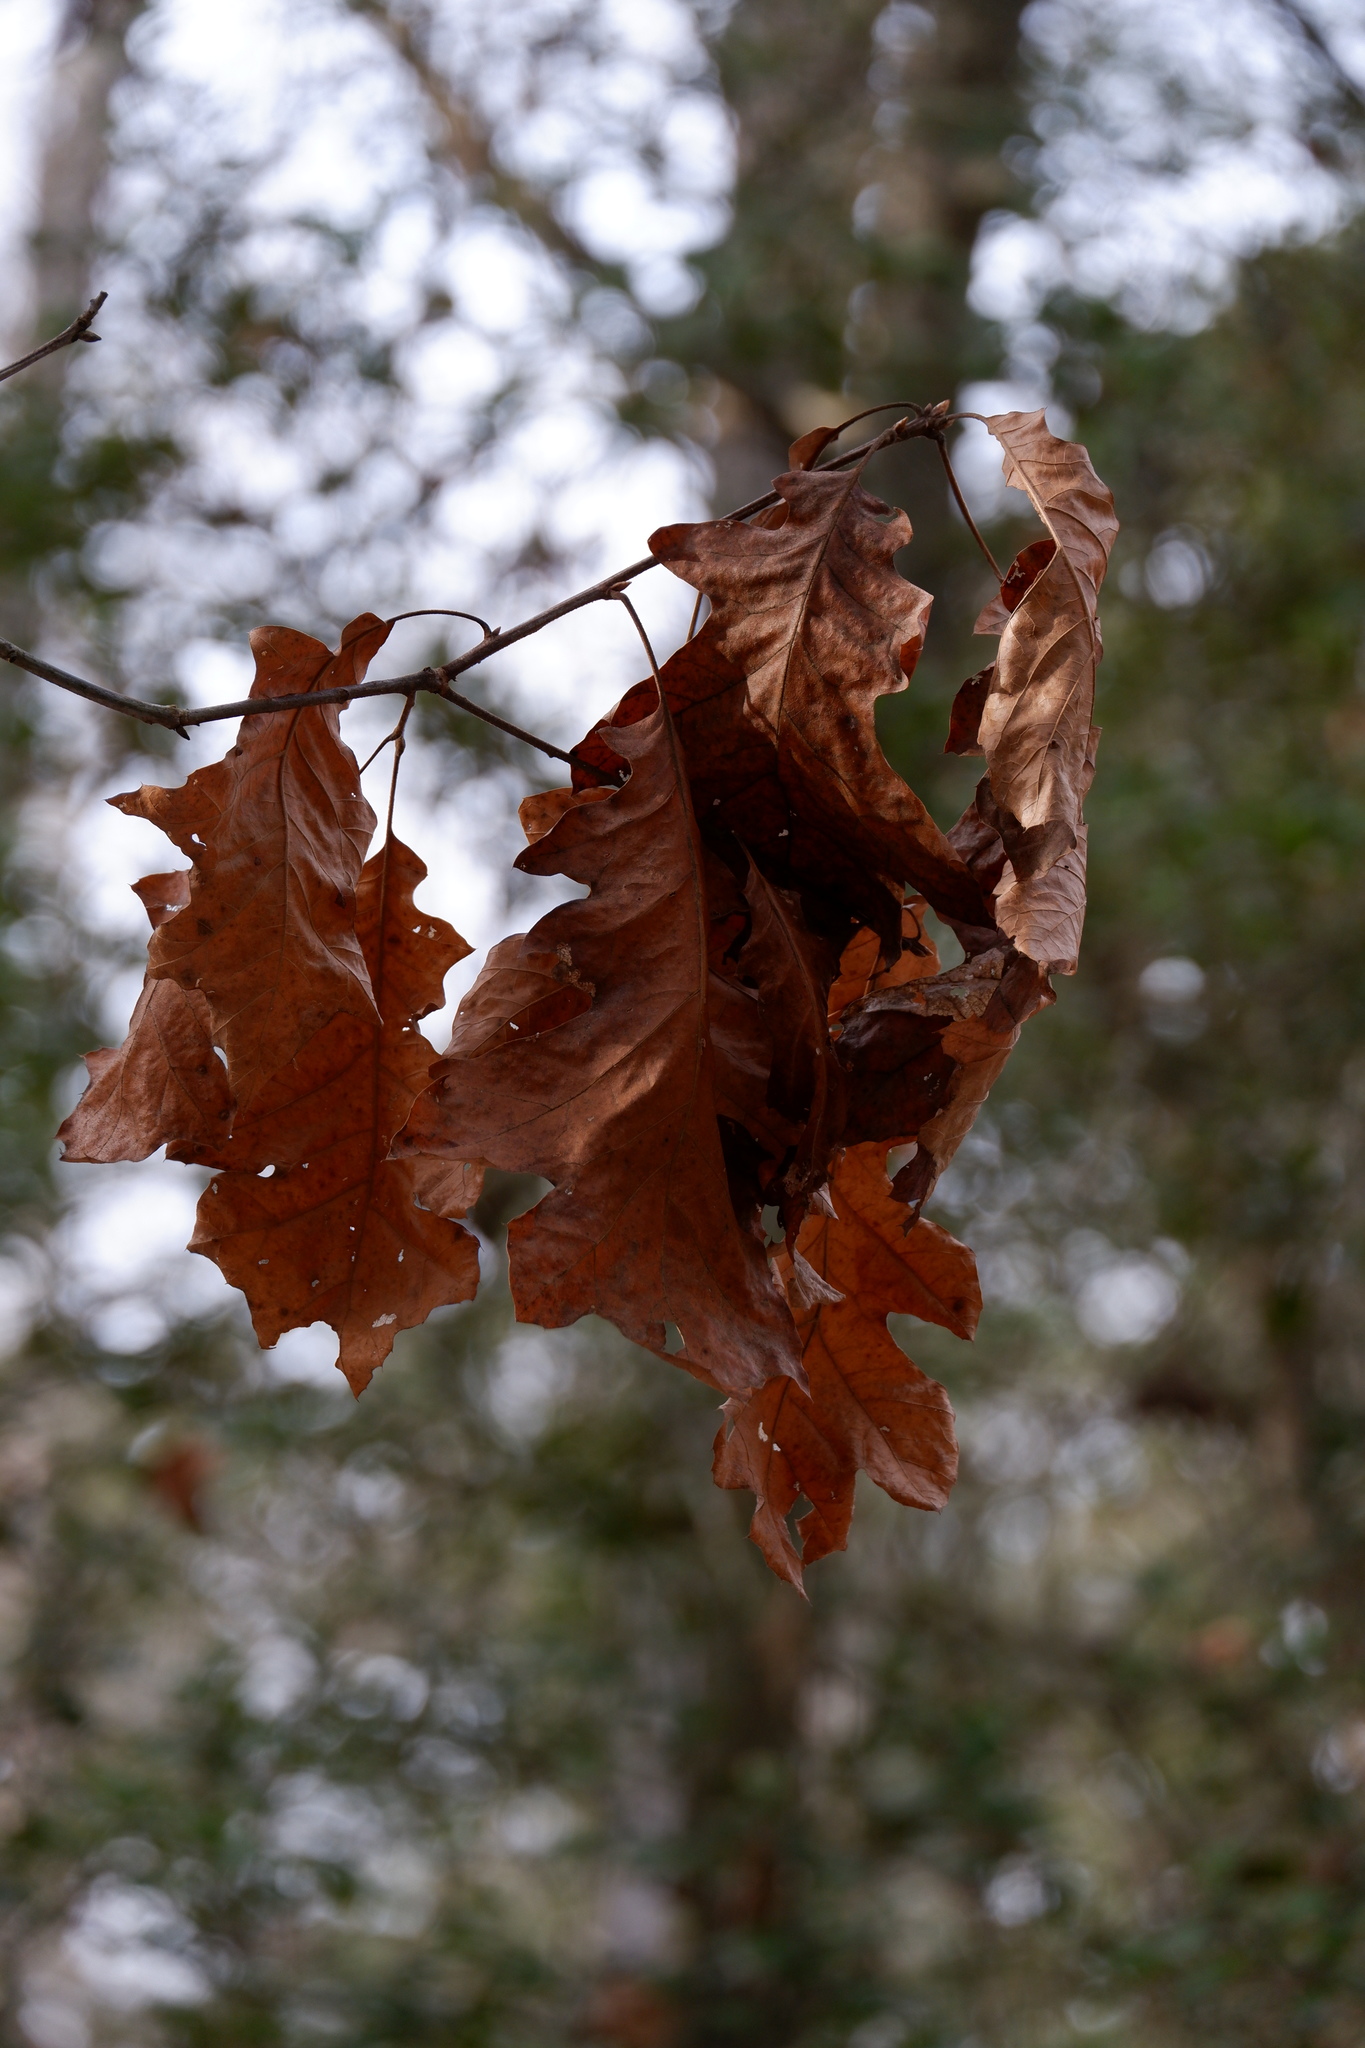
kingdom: Plantae
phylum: Tracheophyta
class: Magnoliopsida
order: Fagales
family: Fagaceae
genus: Quercus
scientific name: Quercus velutina
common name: Black oak
